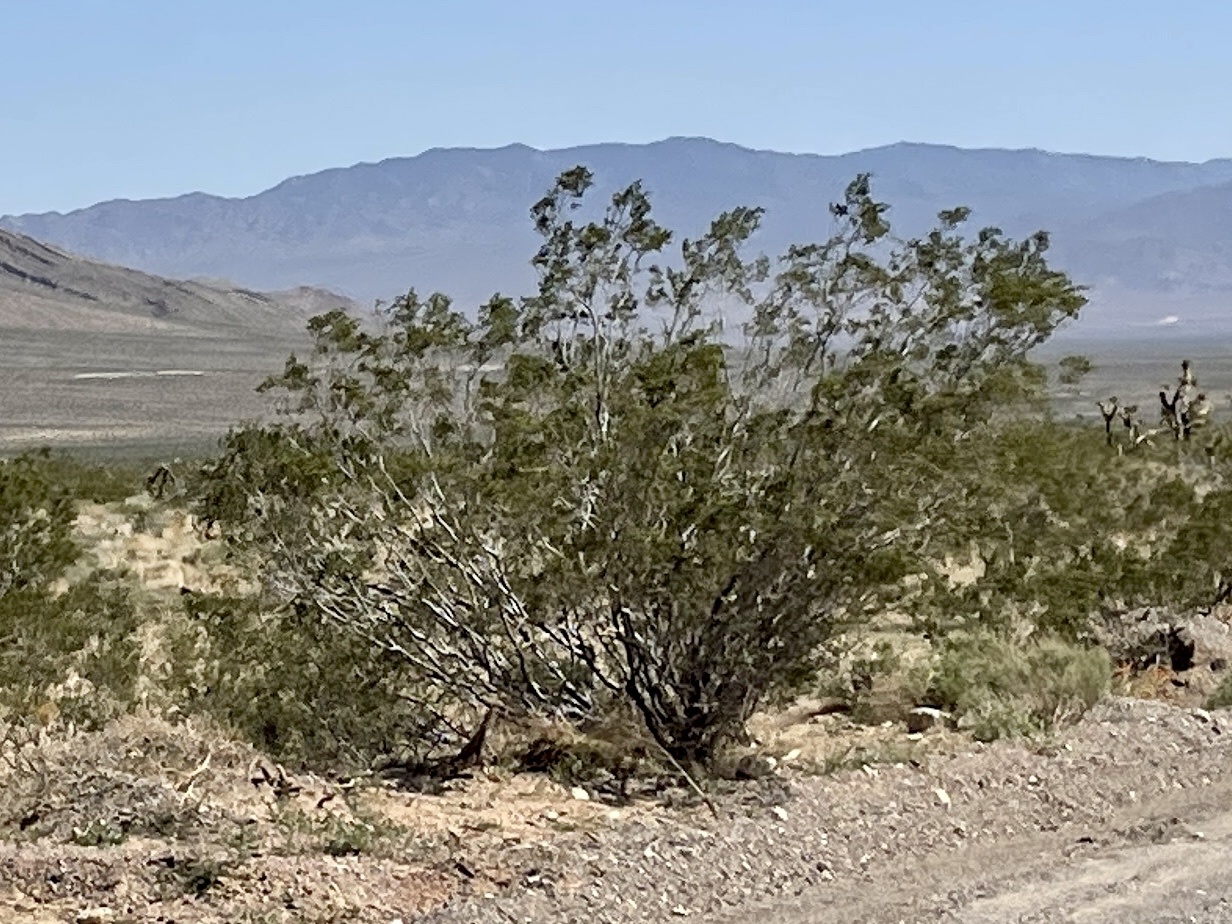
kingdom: Plantae
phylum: Tracheophyta
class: Magnoliopsida
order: Zygophyllales
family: Zygophyllaceae
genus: Larrea
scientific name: Larrea tridentata
